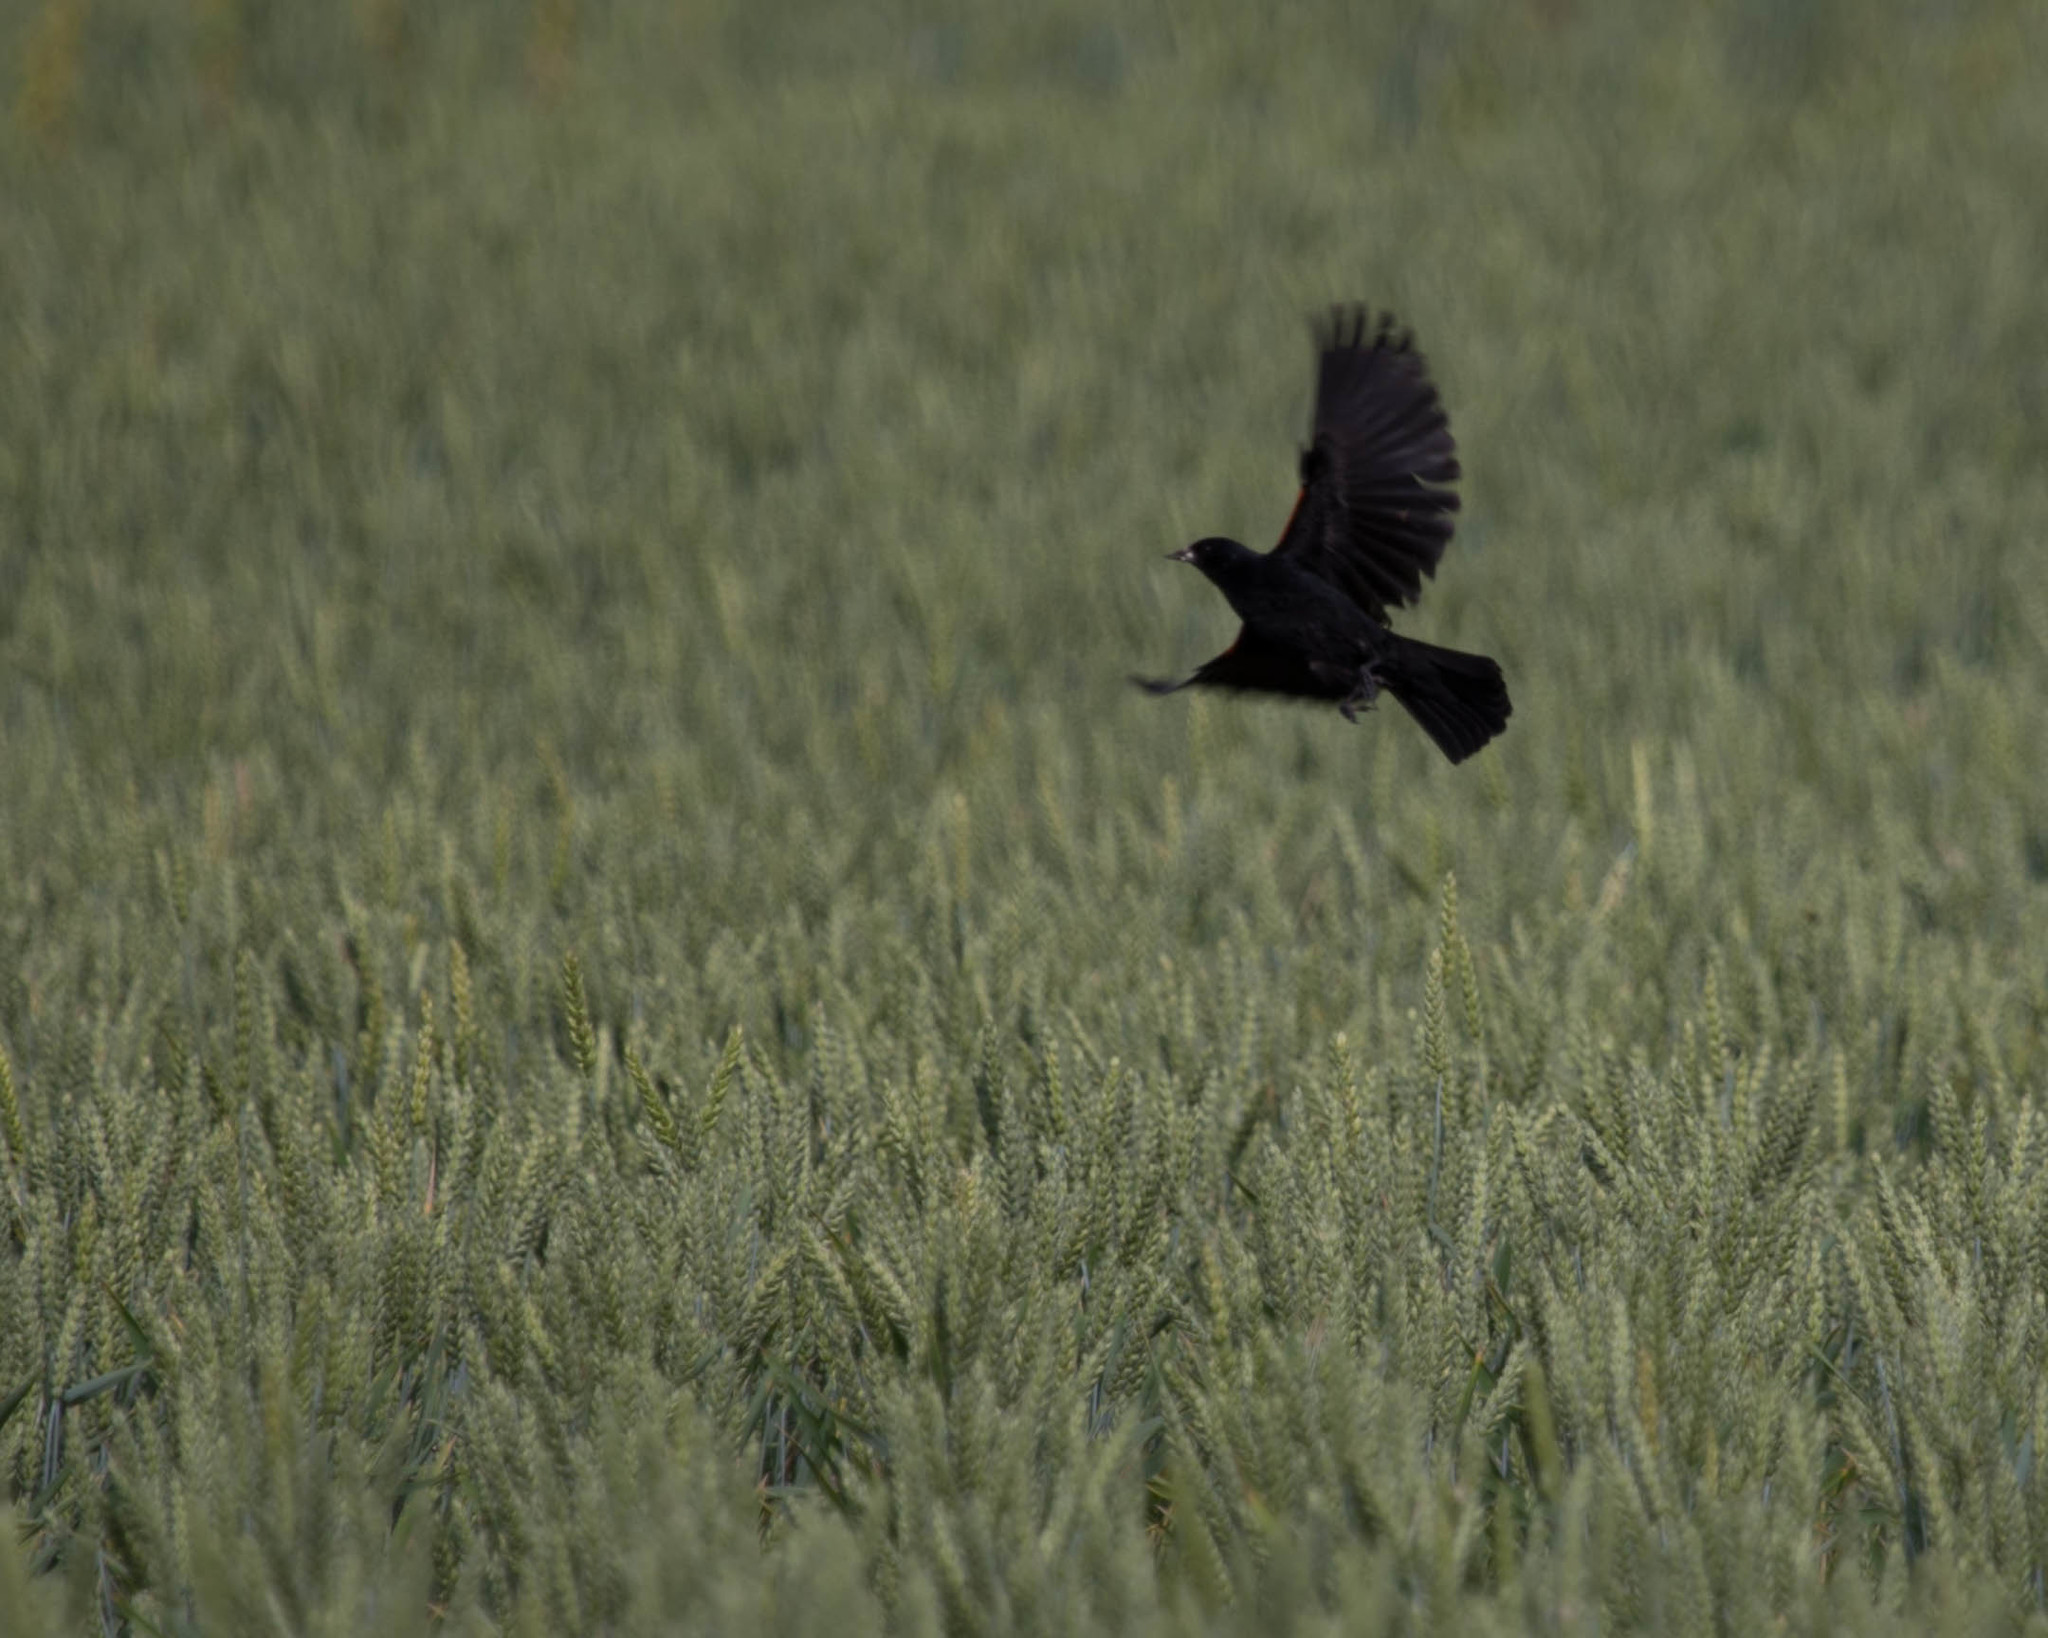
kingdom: Animalia
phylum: Chordata
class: Aves
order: Passeriformes
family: Icteridae
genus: Agelaius
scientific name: Agelaius phoeniceus
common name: Red-winged blackbird
